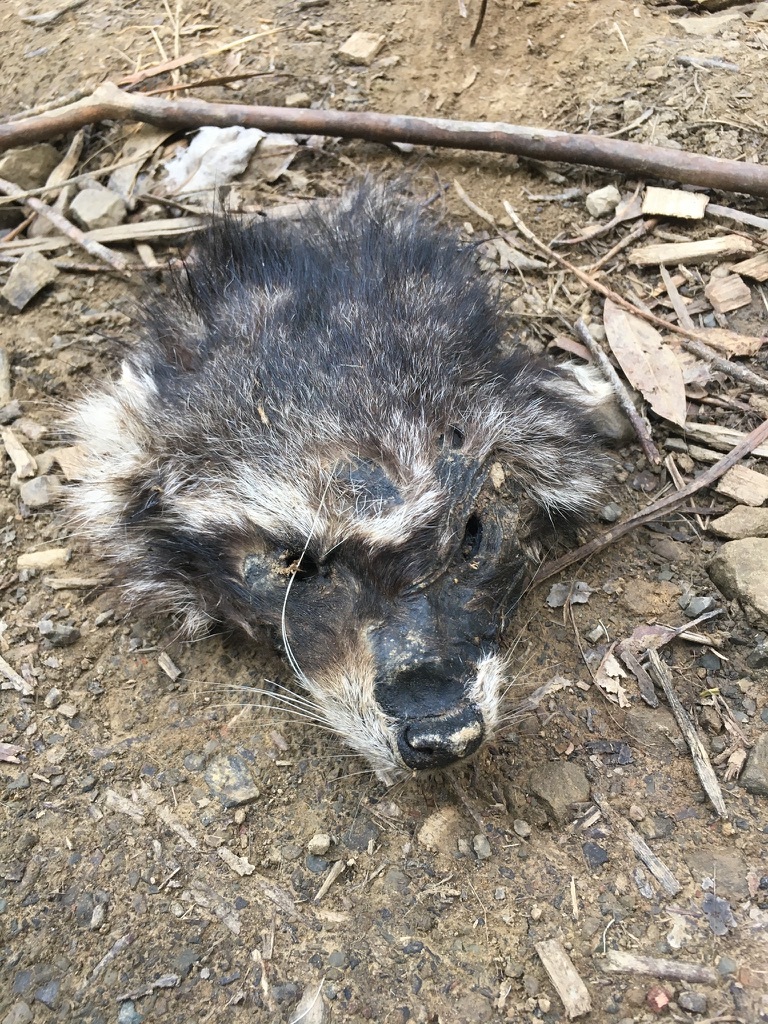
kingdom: Animalia
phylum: Chordata
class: Mammalia
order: Carnivora
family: Procyonidae
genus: Procyon
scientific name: Procyon lotor
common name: Raccoon
